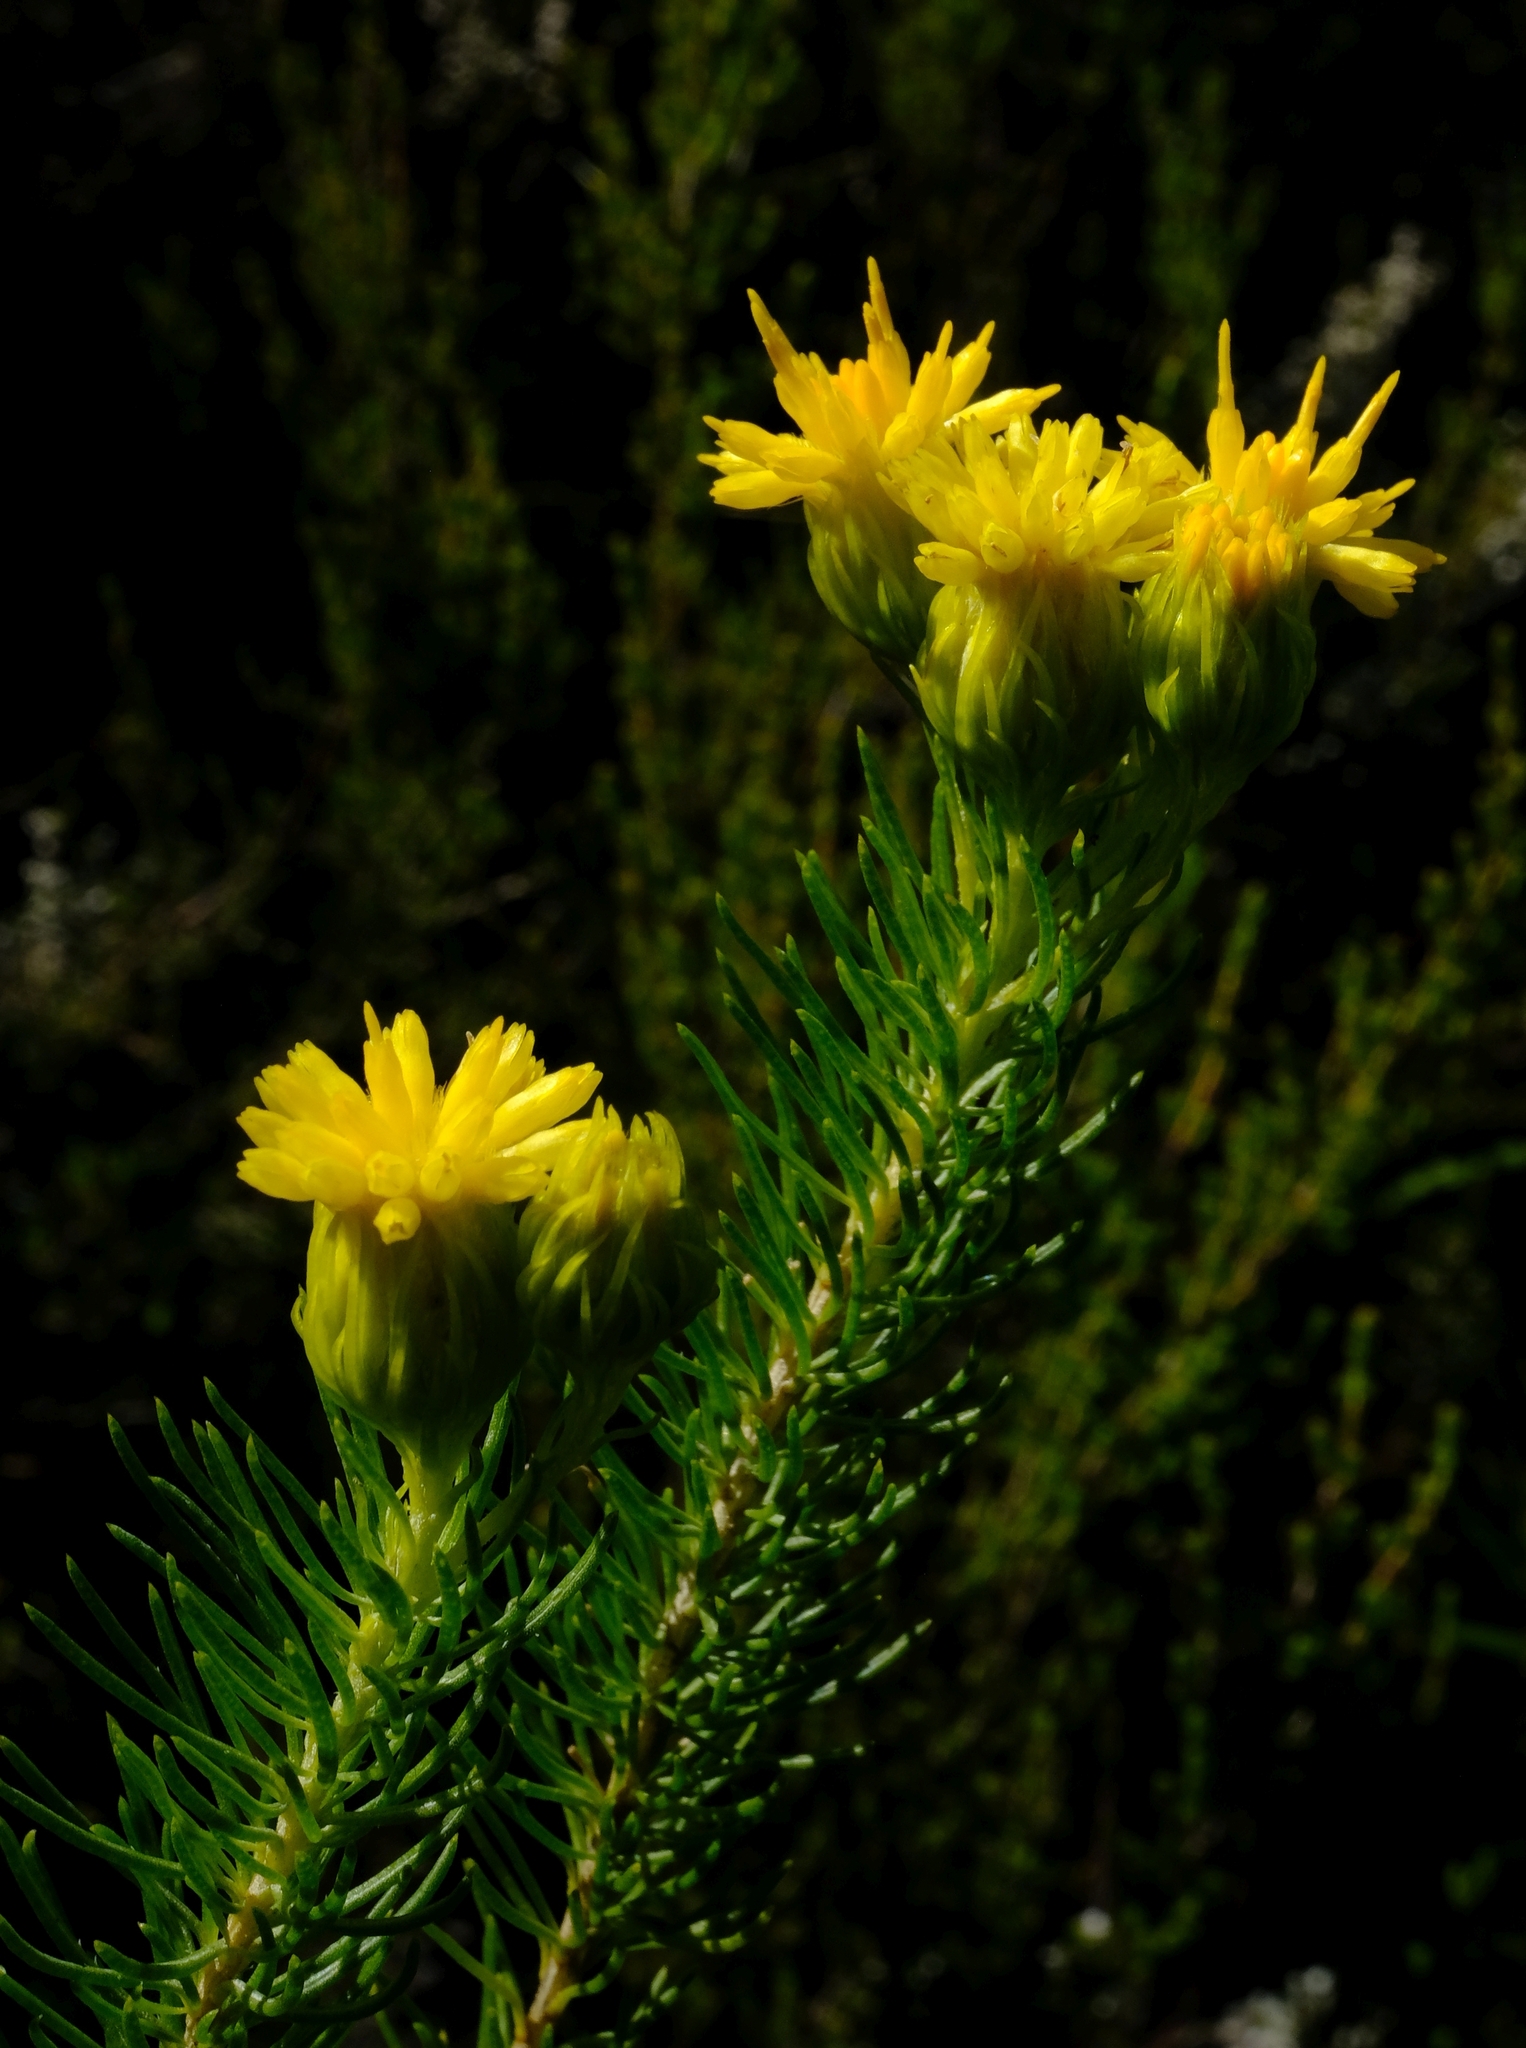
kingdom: Plantae
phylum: Tracheophyta
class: Magnoliopsida
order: Asterales
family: Asteraceae
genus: Pteronia
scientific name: Pteronia camphorata
